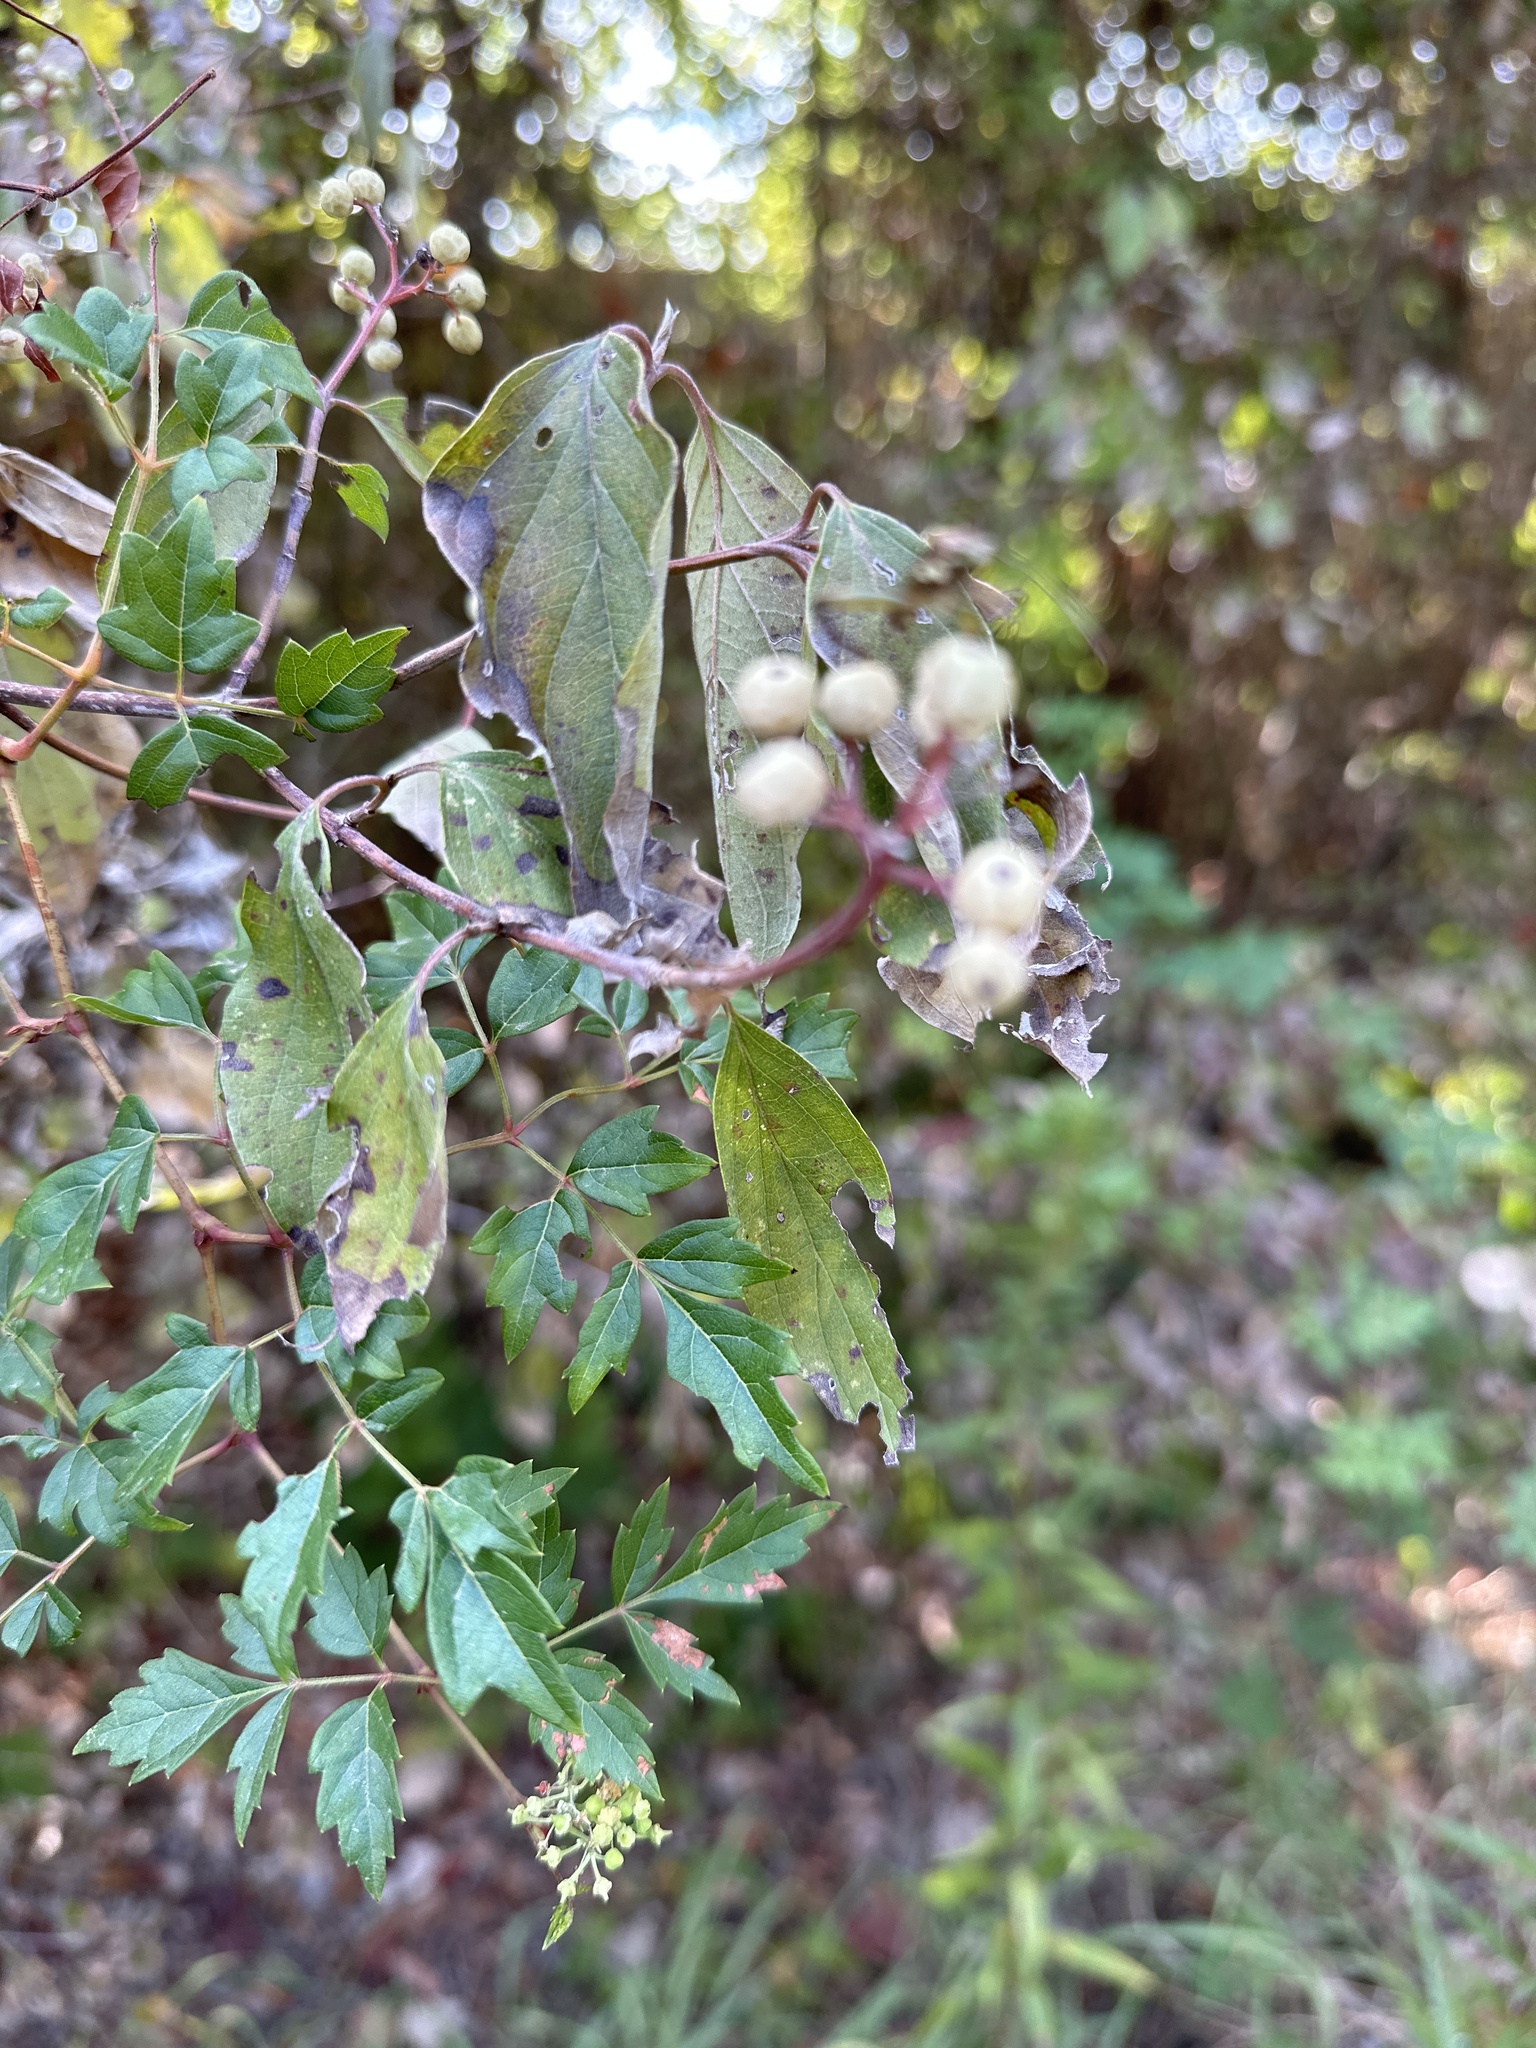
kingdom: Plantae
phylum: Tracheophyta
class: Magnoliopsida
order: Cornales
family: Cornaceae
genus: Cornus
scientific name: Cornus drummondii
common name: Rough-leaf dogwood
